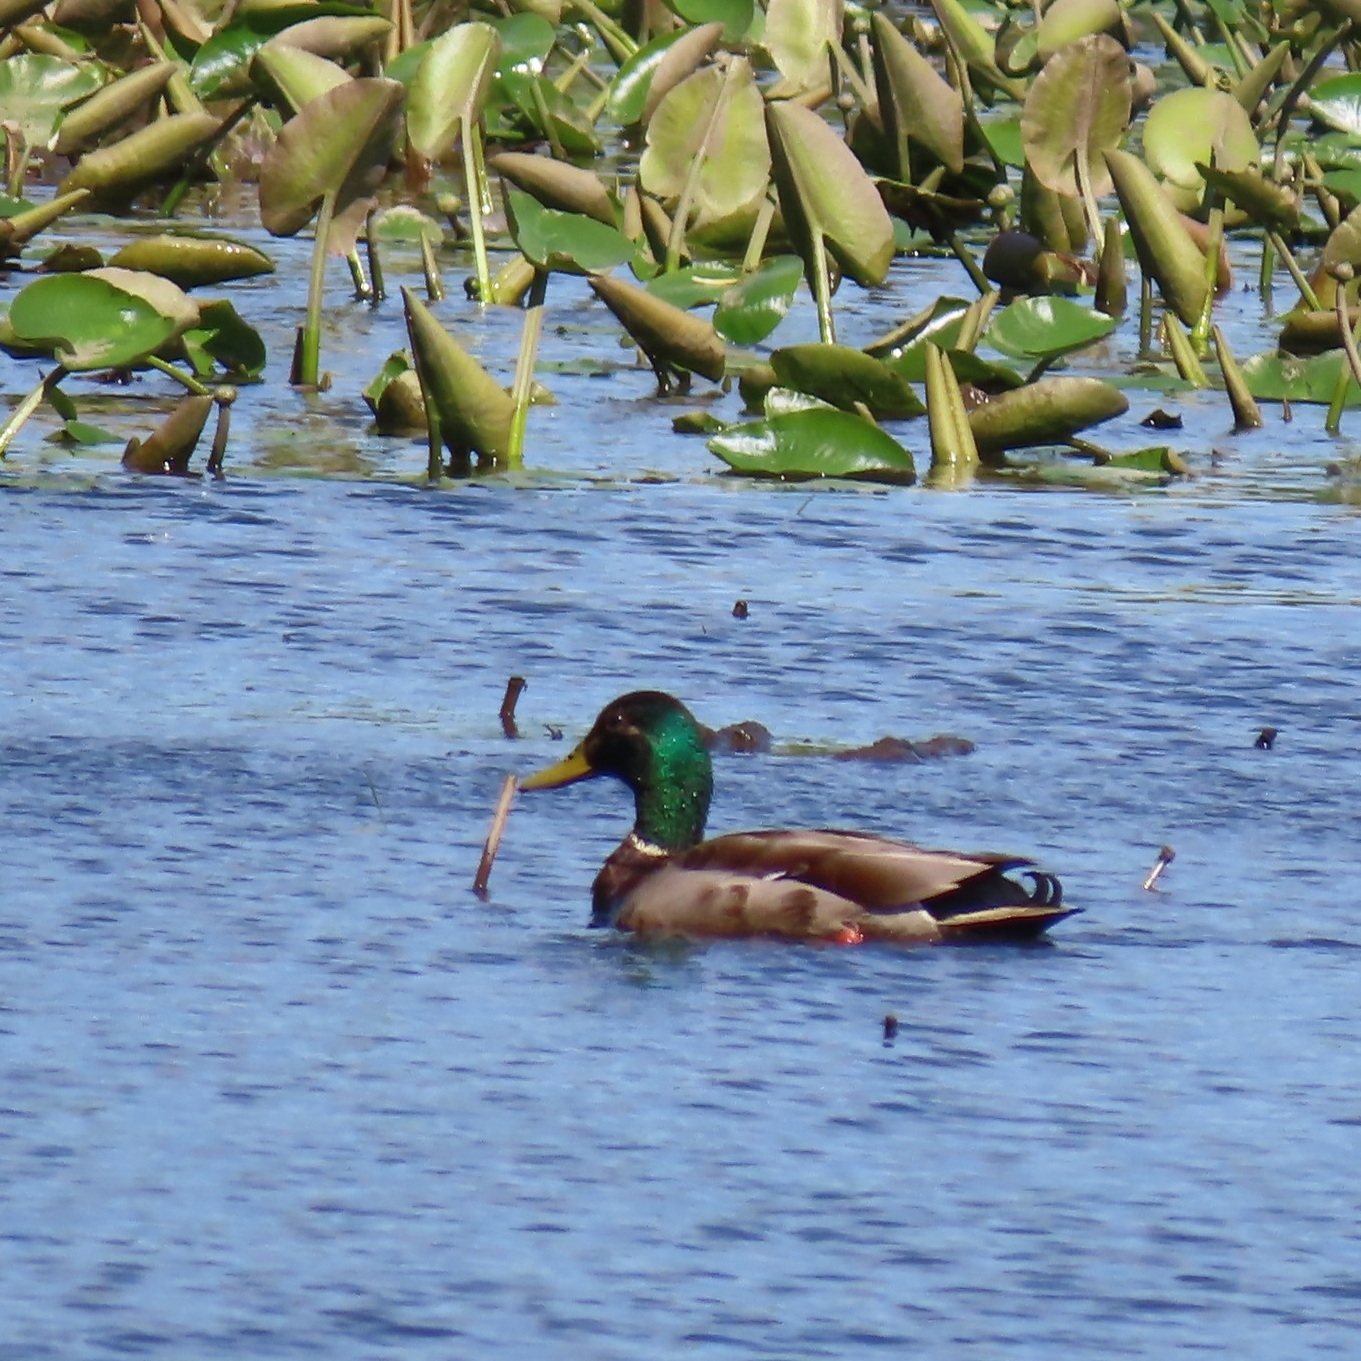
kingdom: Animalia
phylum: Chordata
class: Aves
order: Anseriformes
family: Anatidae
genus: Anas
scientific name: Anas platyrhynchos
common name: Mallard
